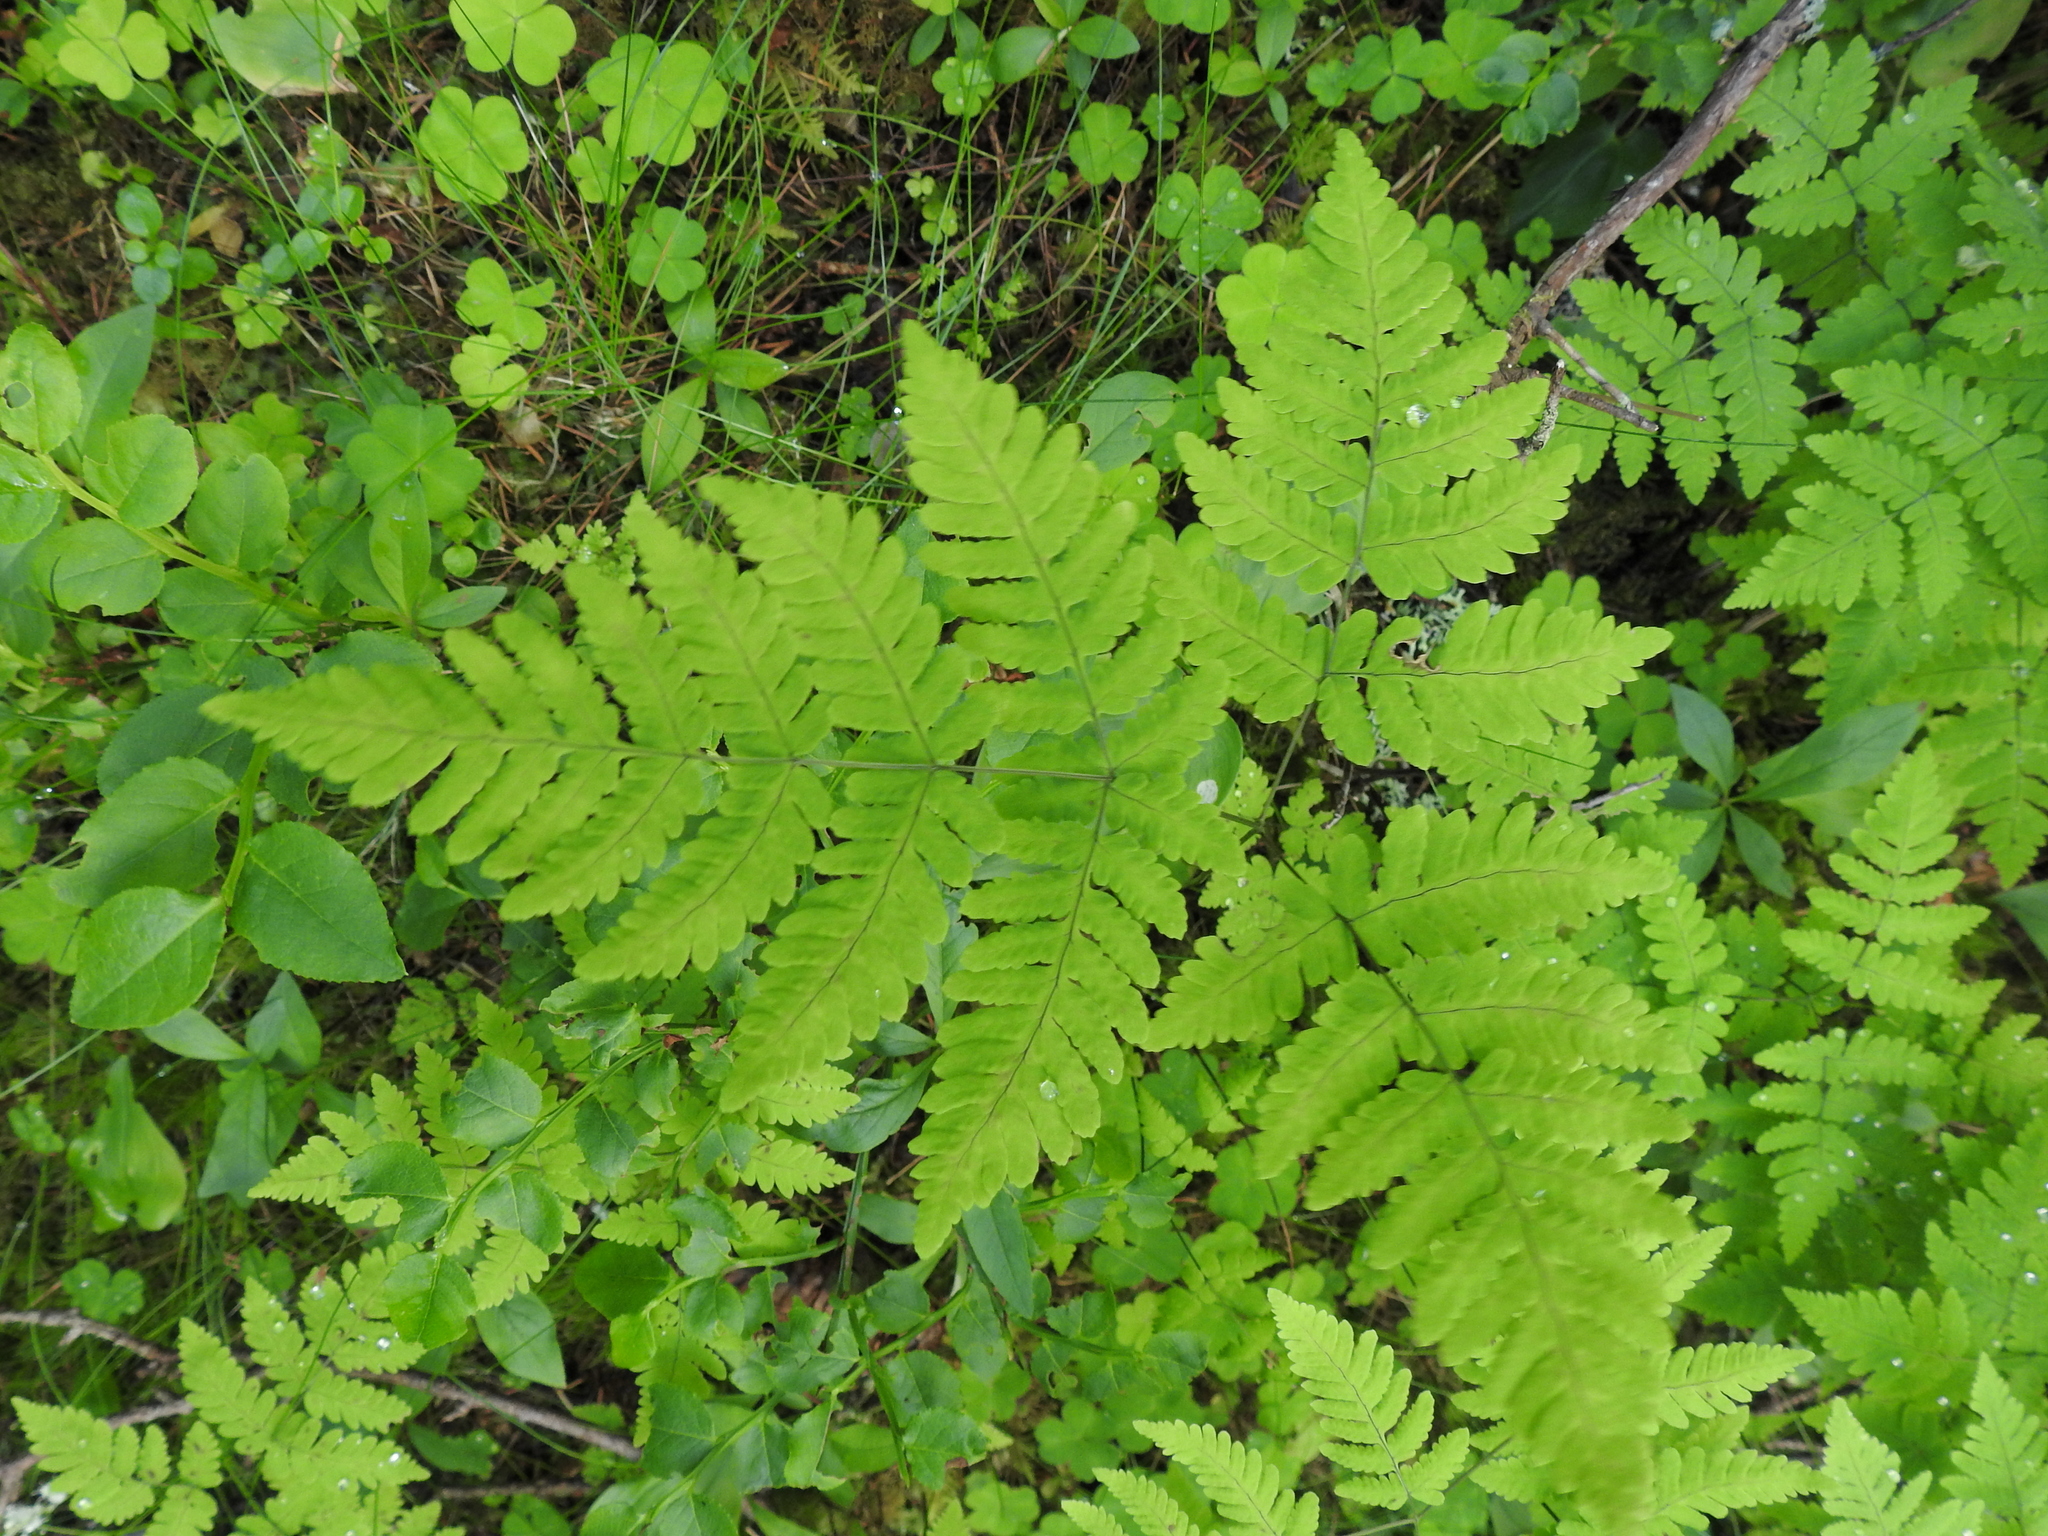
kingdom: Plantae
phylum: Tracheophyta
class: Polypodiopsida
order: Polypodiales
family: Cystopteridaceae
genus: Gymnocarpium
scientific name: Gymnocarpium dryopteris
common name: Oak fern
